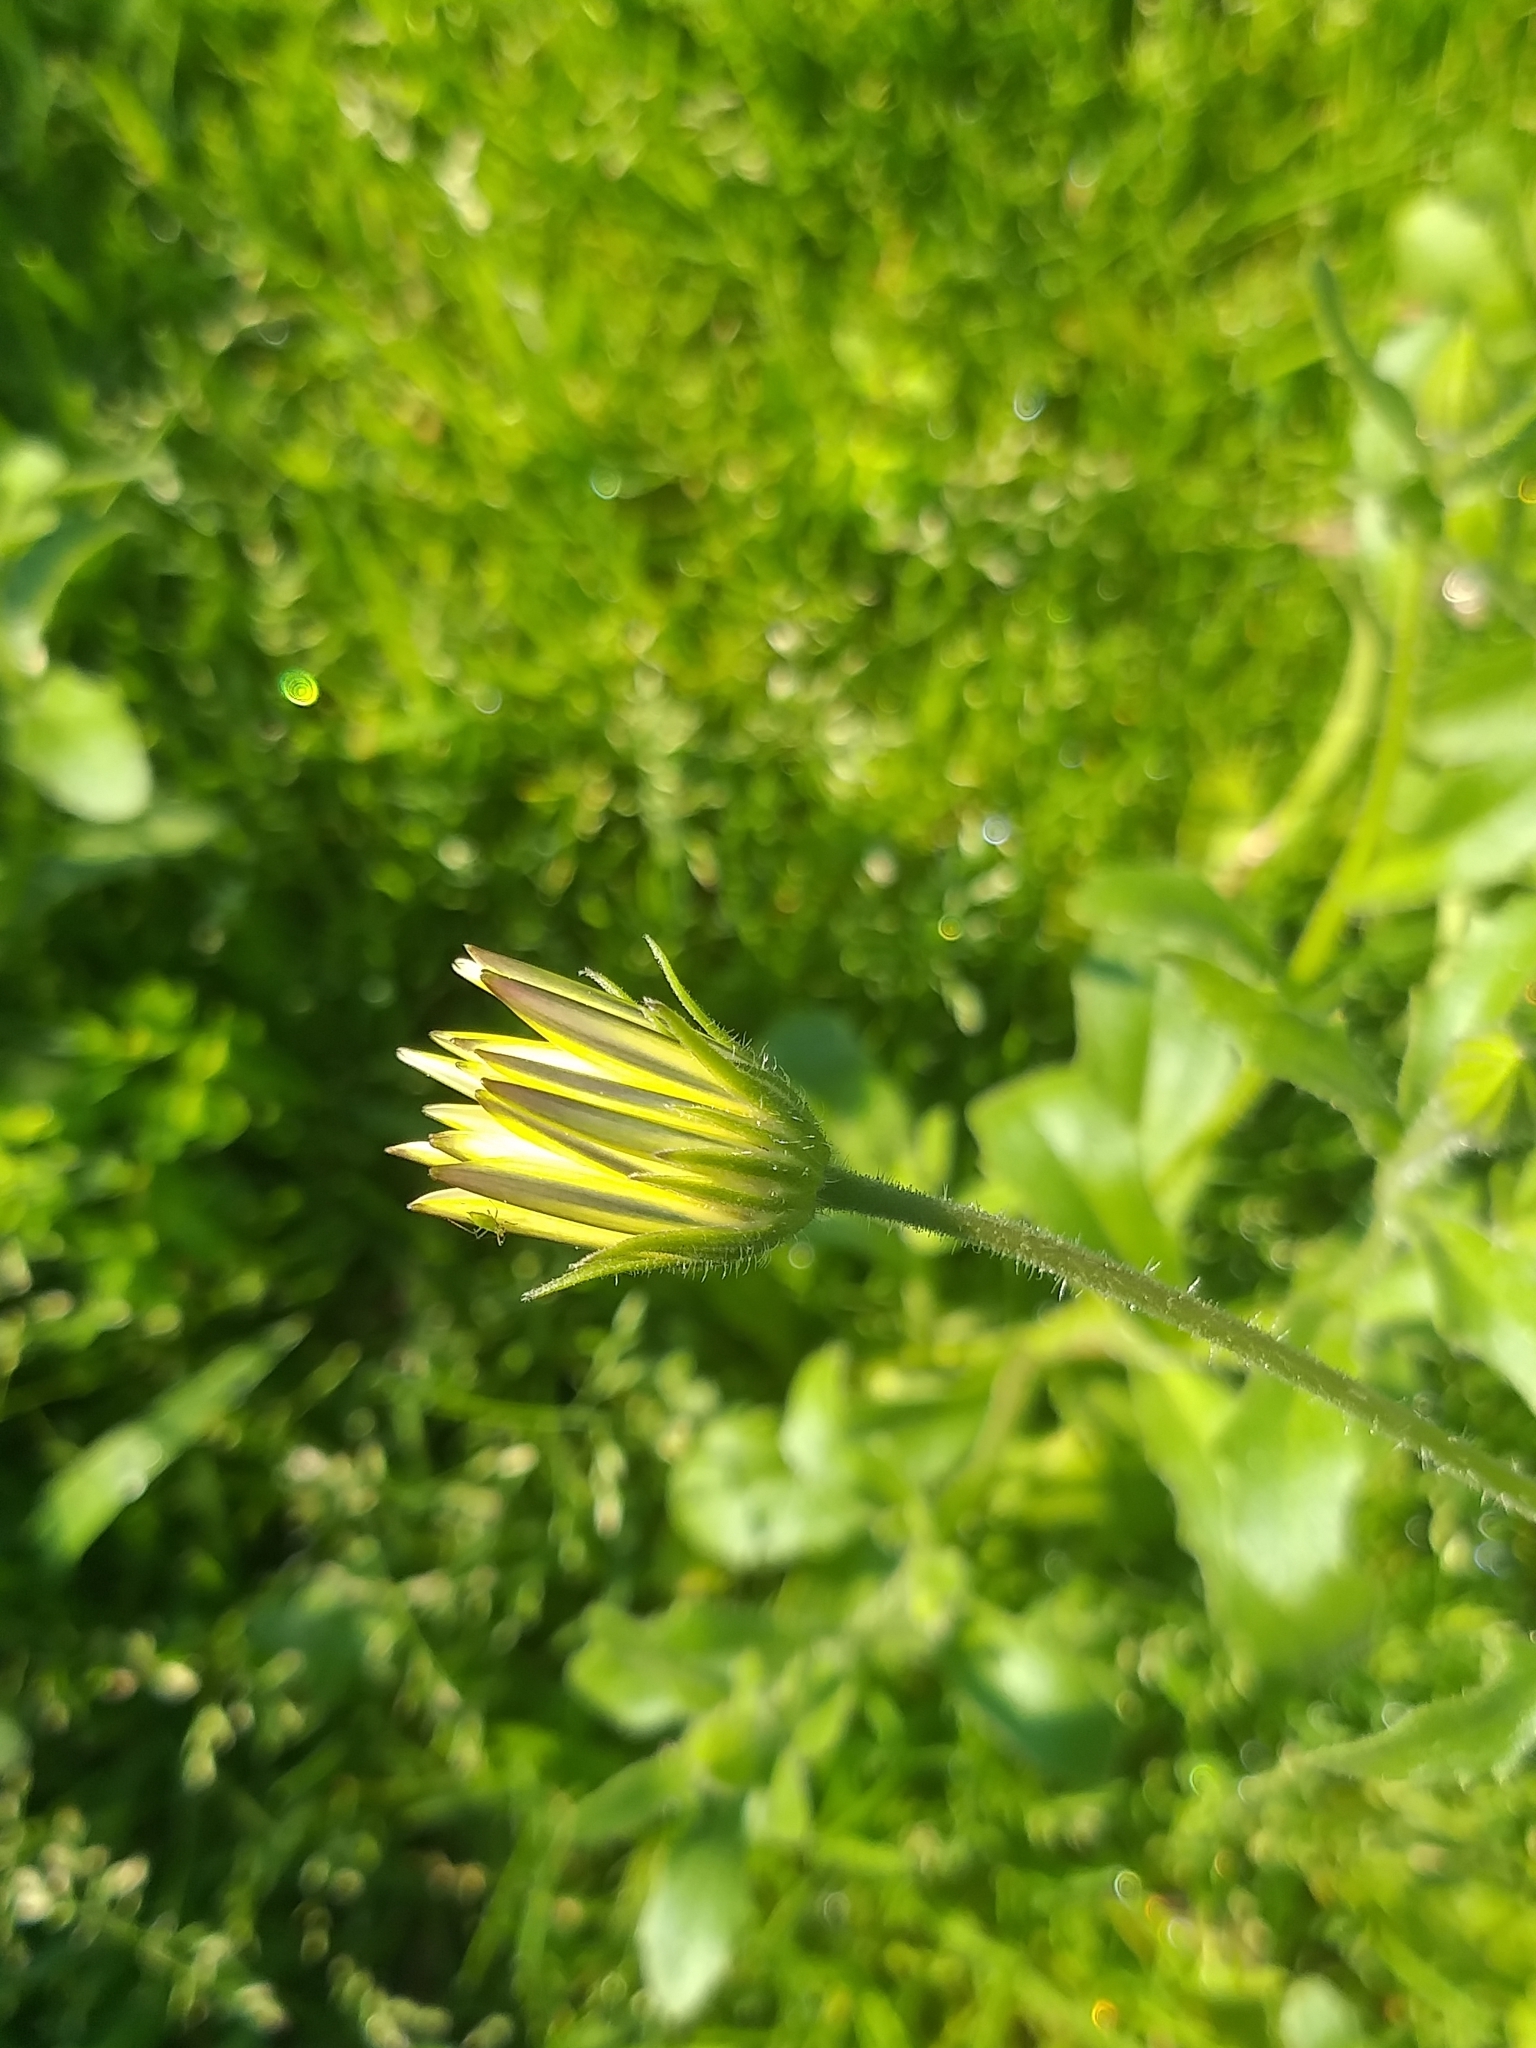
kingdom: Plantae
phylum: Tracheophyta
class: Magnoliopsida
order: Asterales
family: Asteraceae
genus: Dimorphotheca
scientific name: Dimorphotheca pluvialis
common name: Weather prophet
